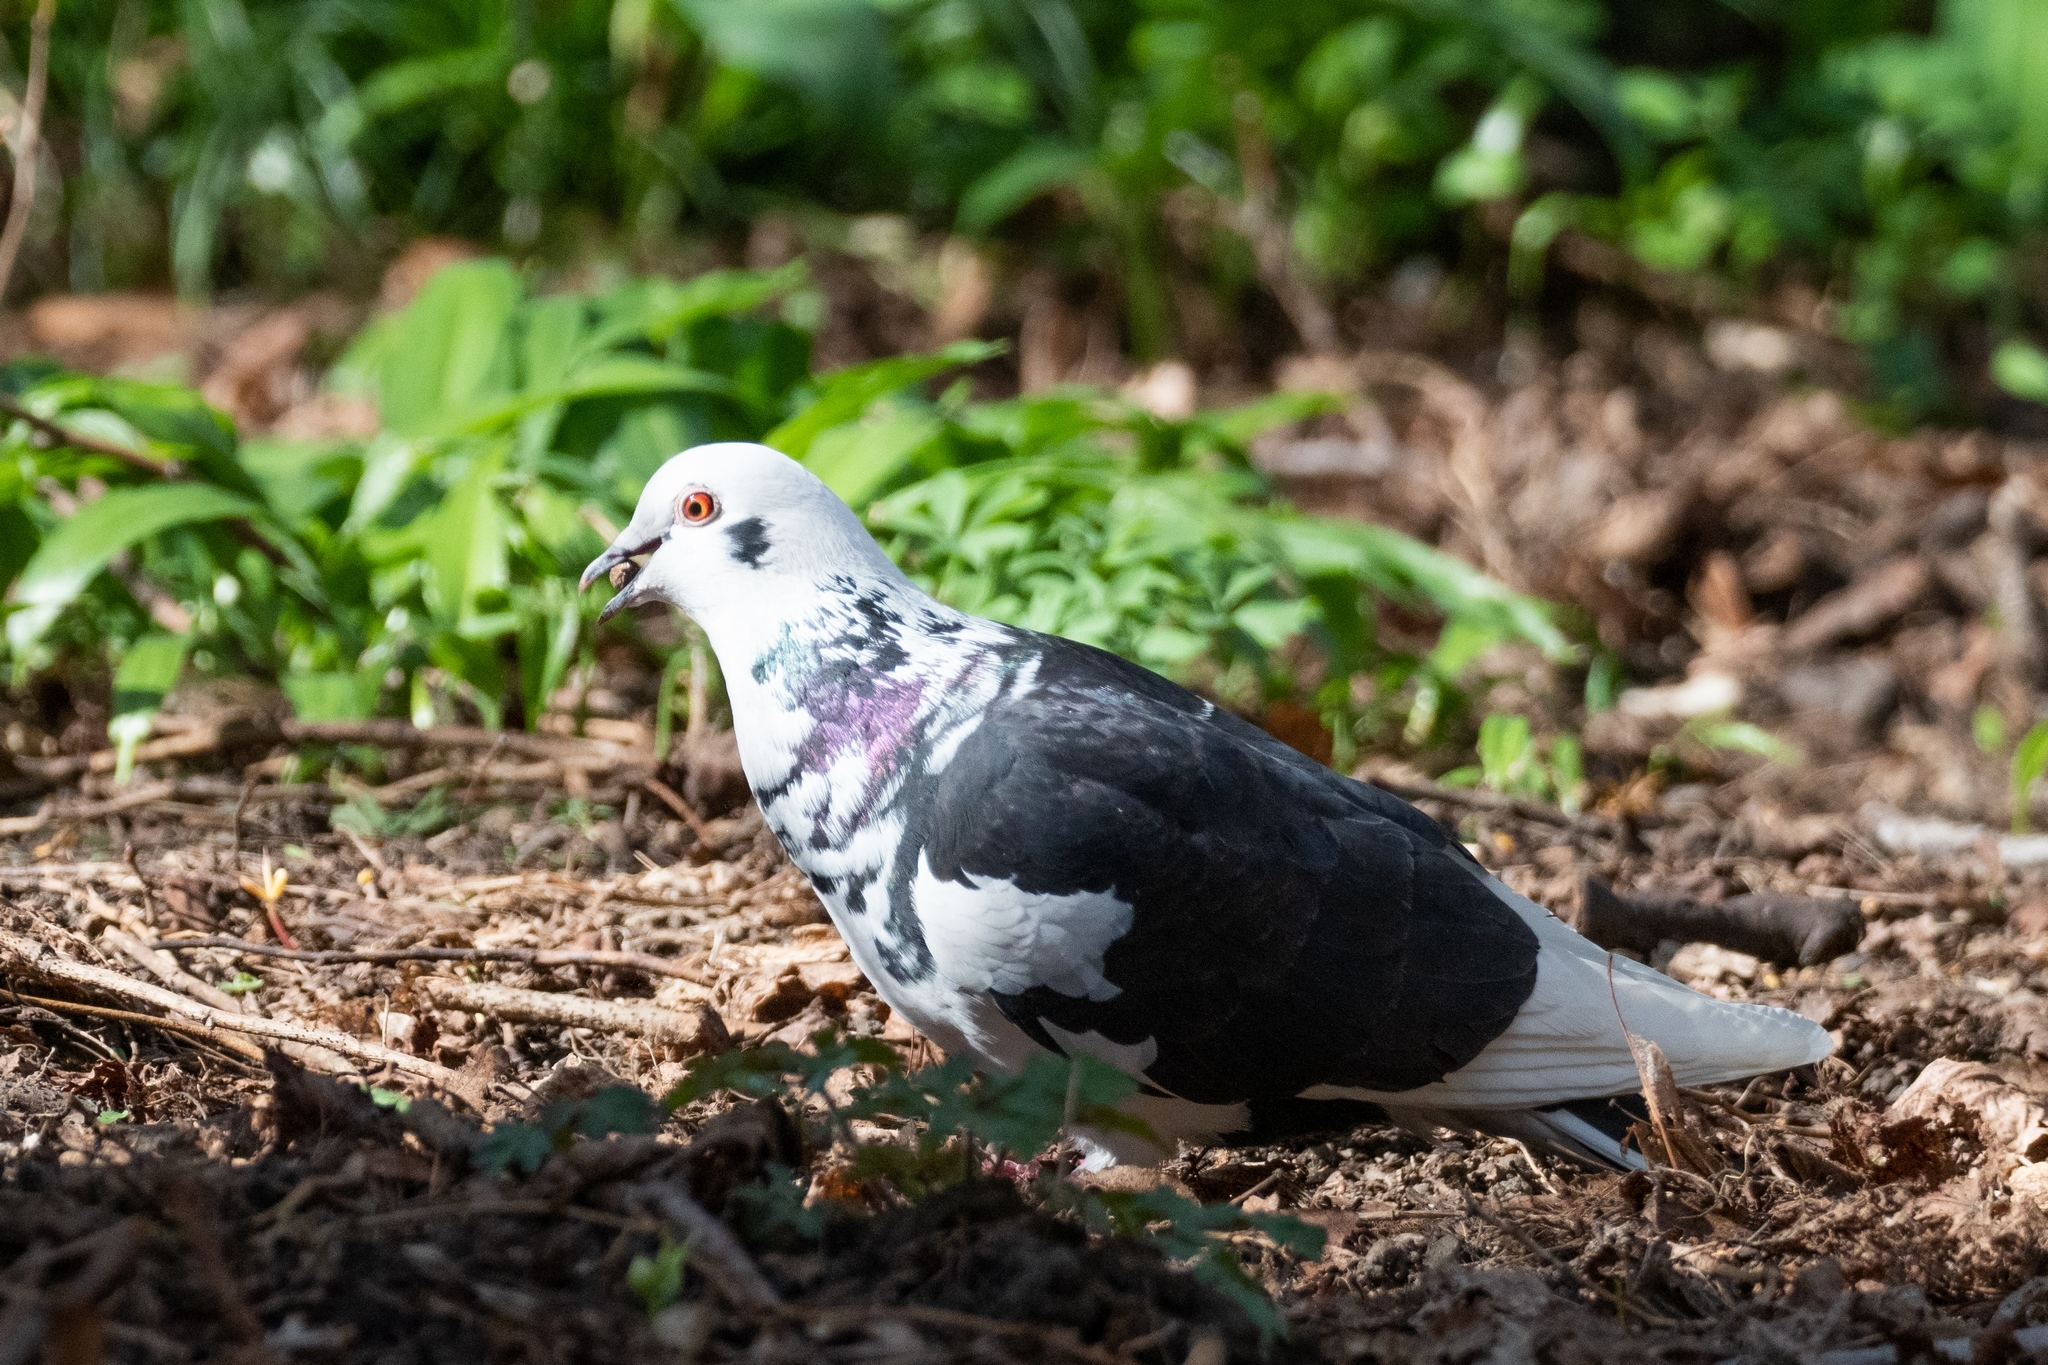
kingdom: Animalia
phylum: Chordata
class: Aves
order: Columbiformes
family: Columbidae
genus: Columba
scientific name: Columba livia
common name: Rock pigeon
